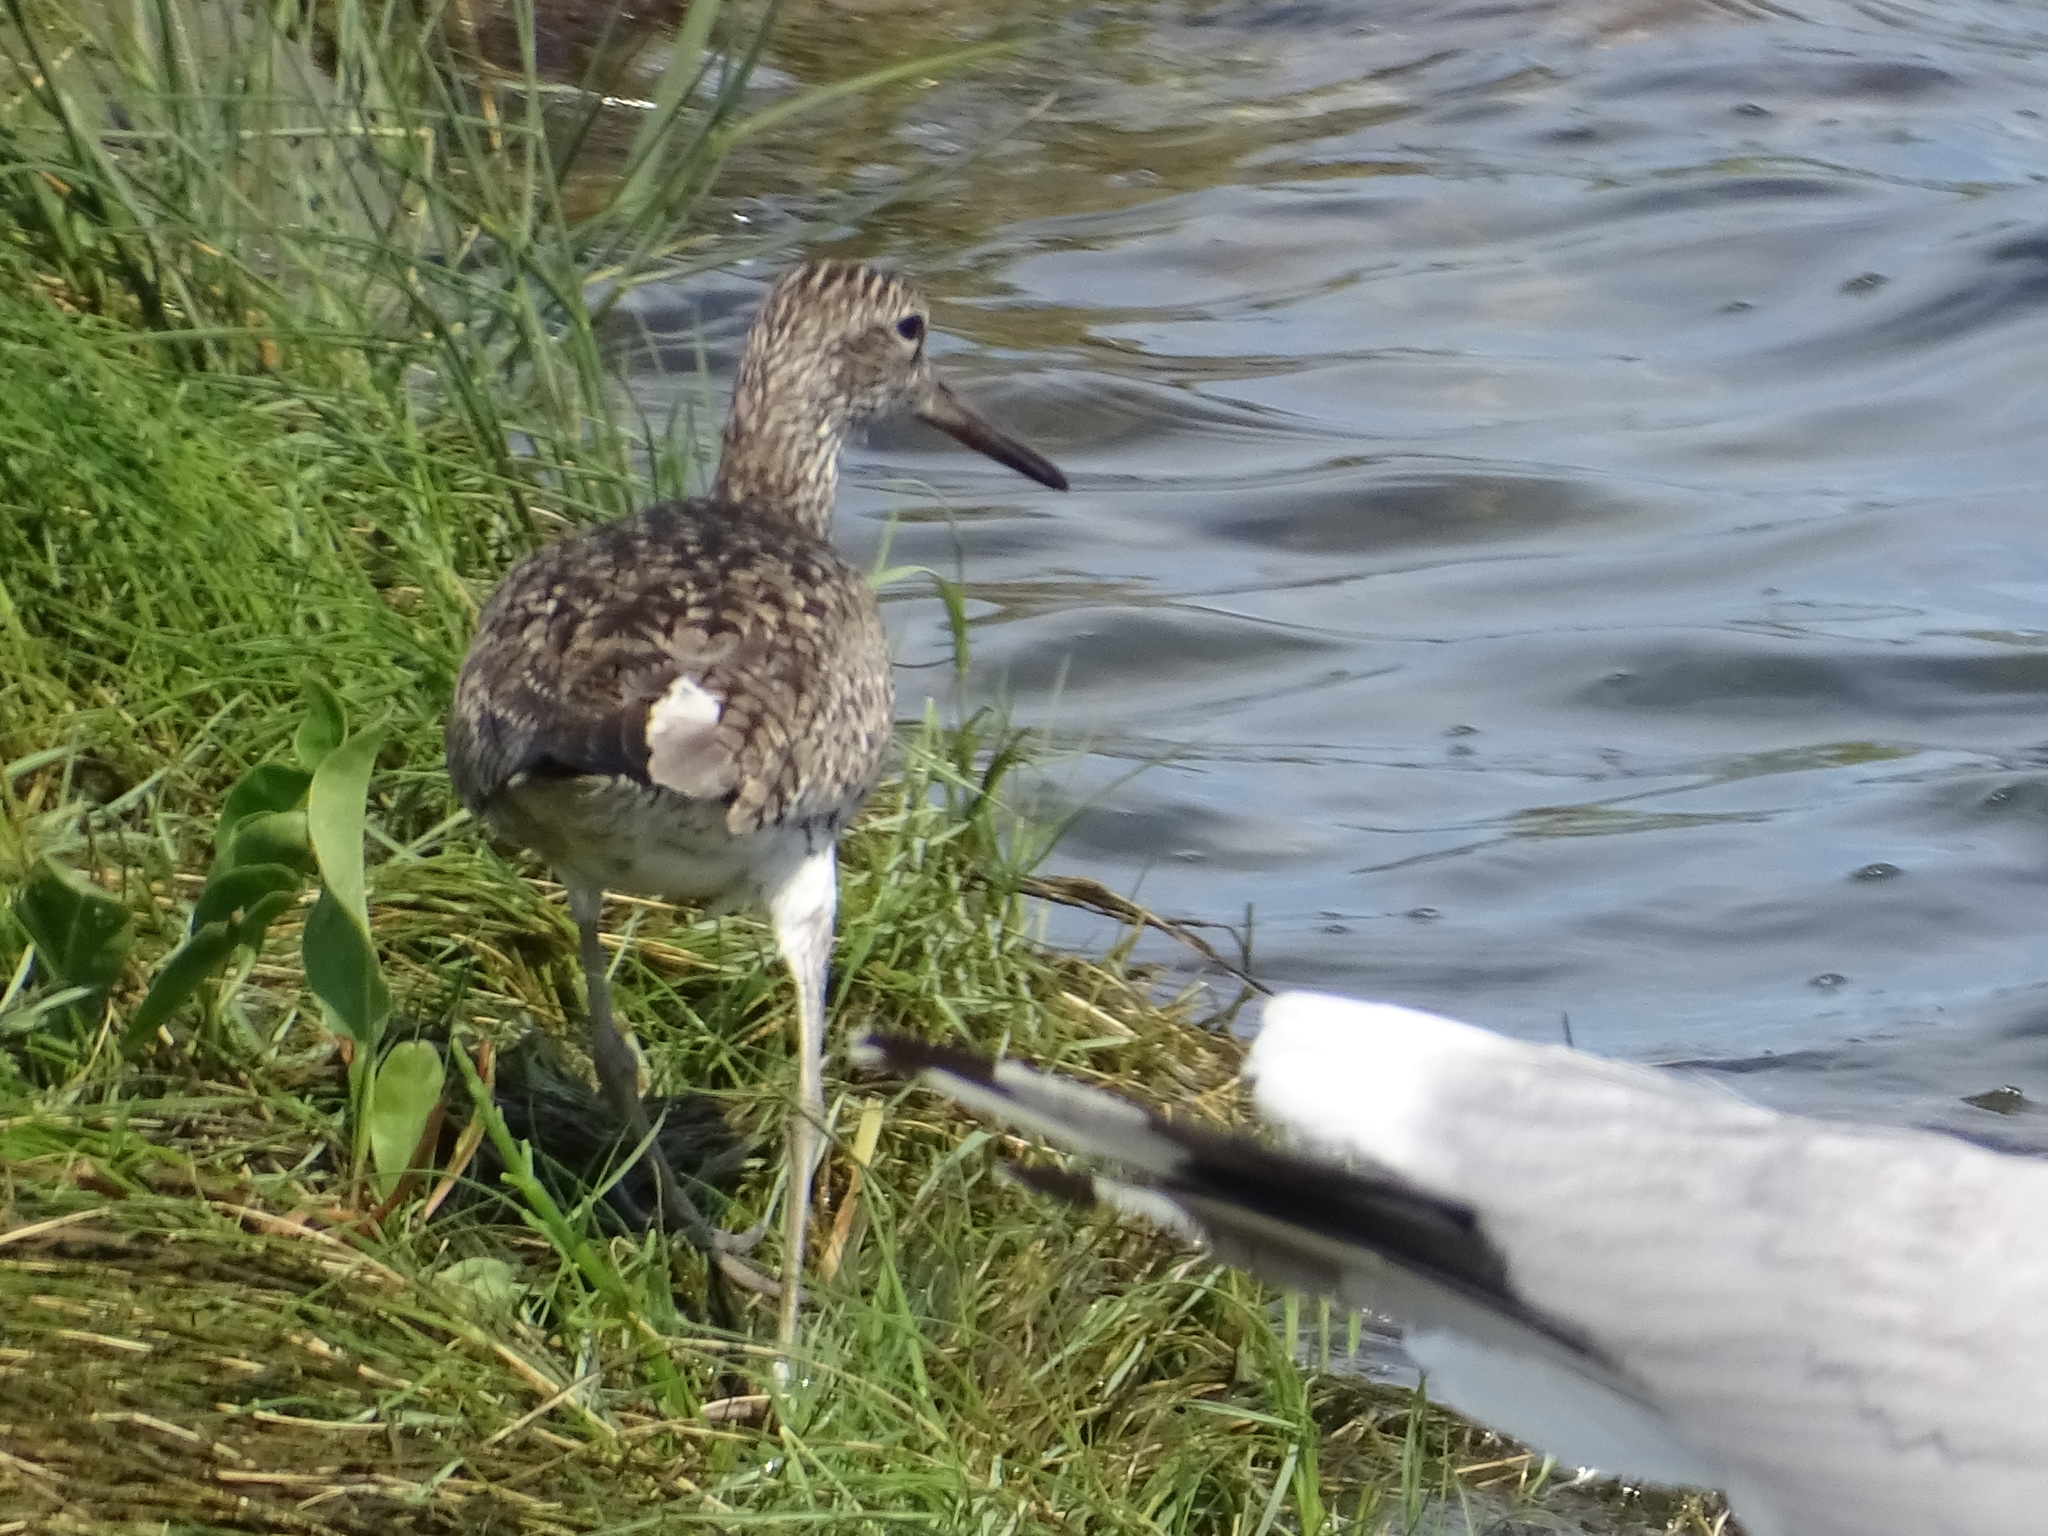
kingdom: Animalia
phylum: Chordata
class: Aves
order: Charadriiformes
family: Scolopacidae
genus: Tringa
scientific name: Tringa semipalmata
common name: Willet
